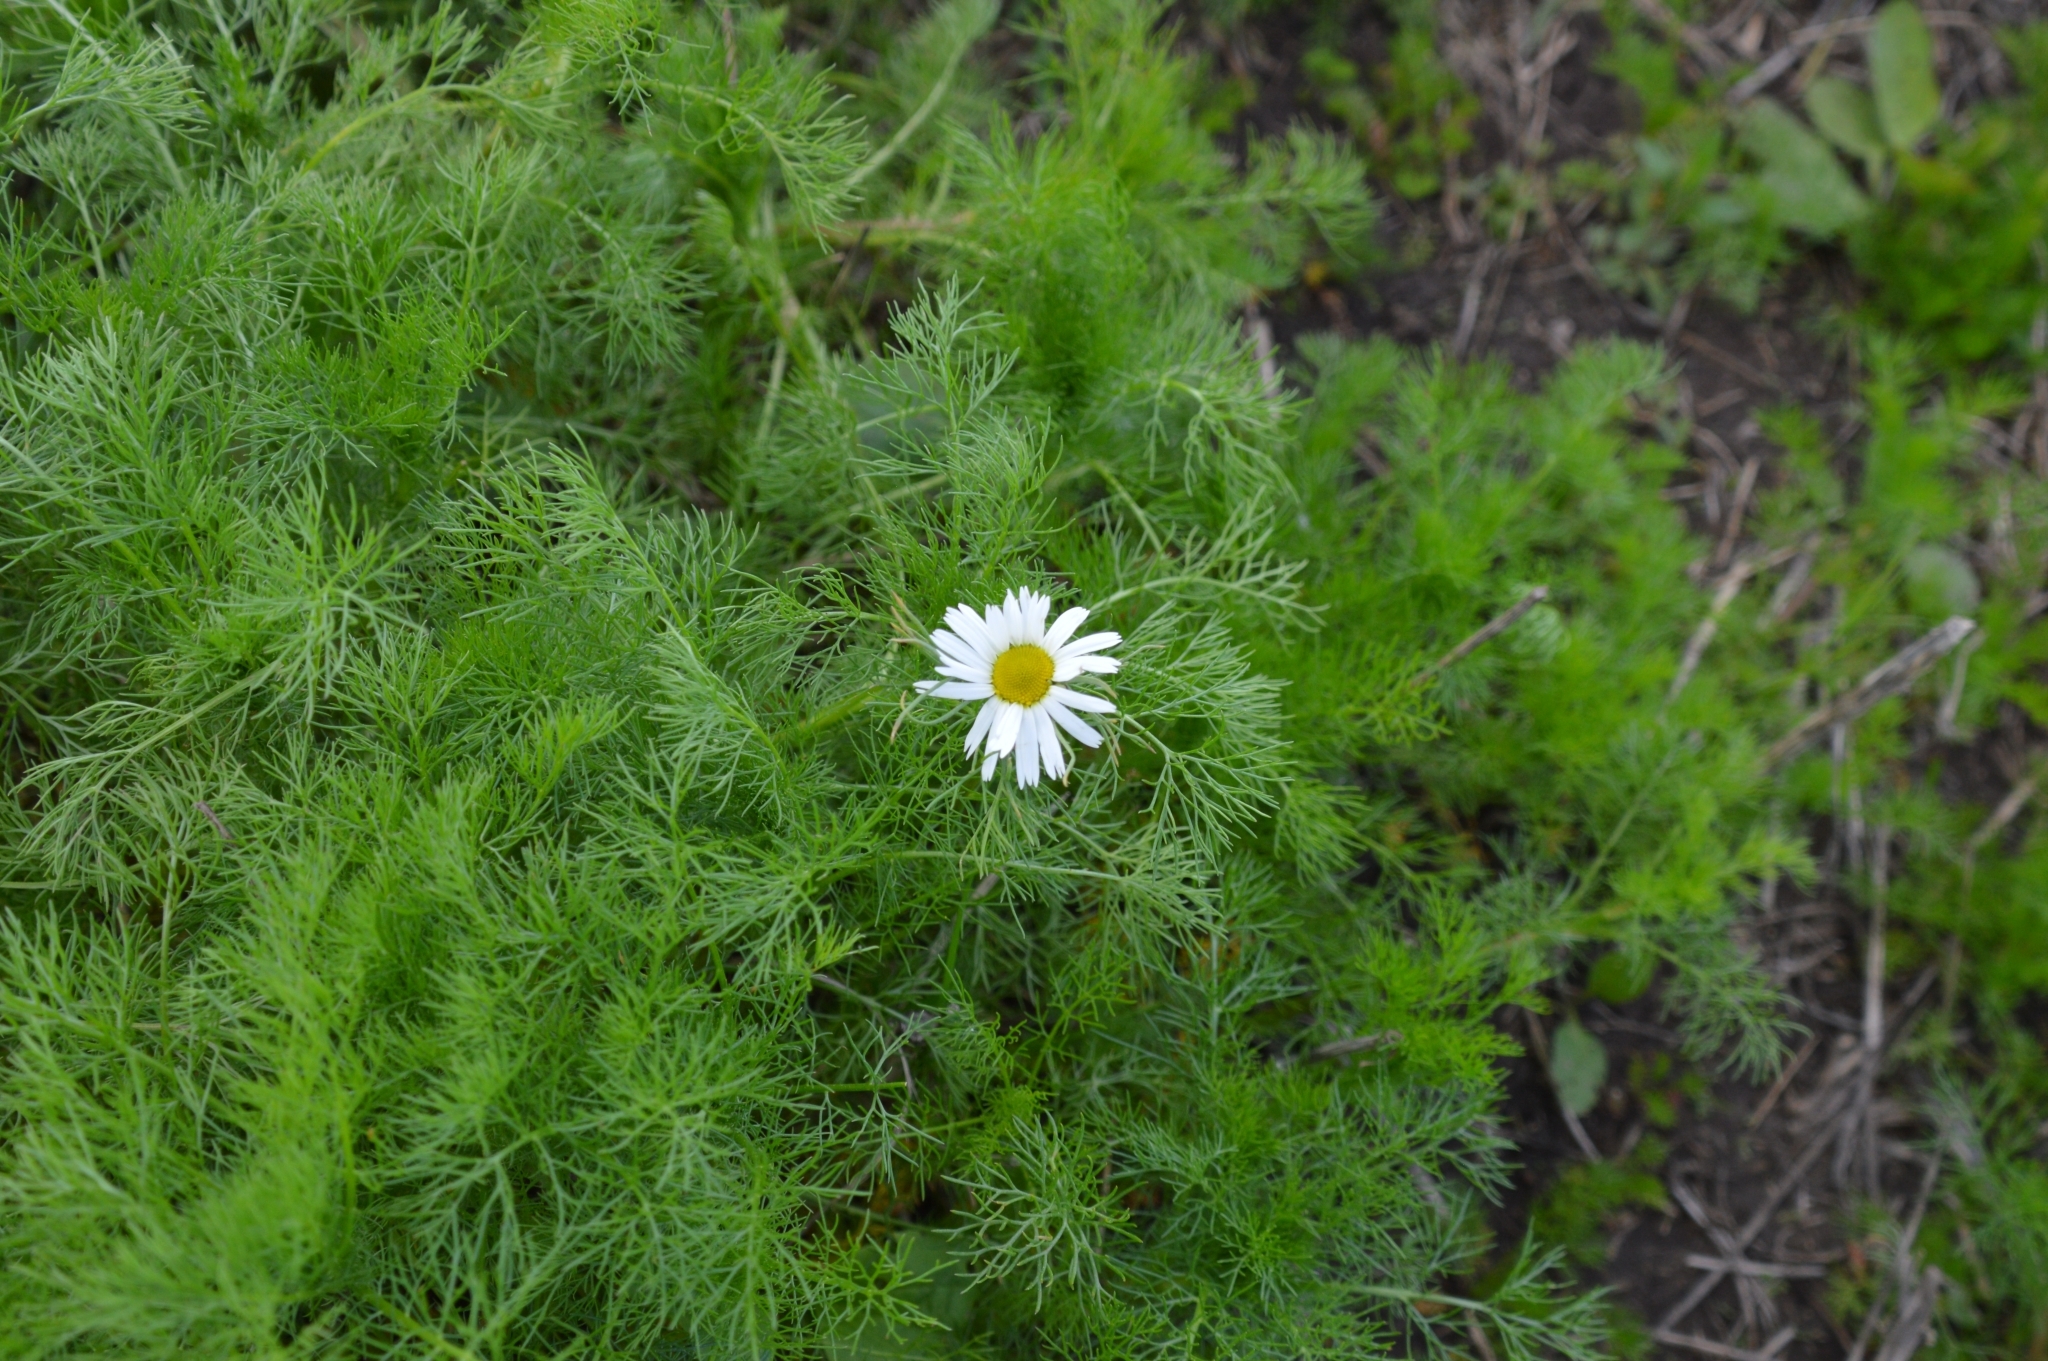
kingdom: Plantae
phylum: Tracheophyta
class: Magnoliopsida
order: Asterales
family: Asteraceae
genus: Tripleurospermum
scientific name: Tripleurospermum inodorum
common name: Scentless mayweed
